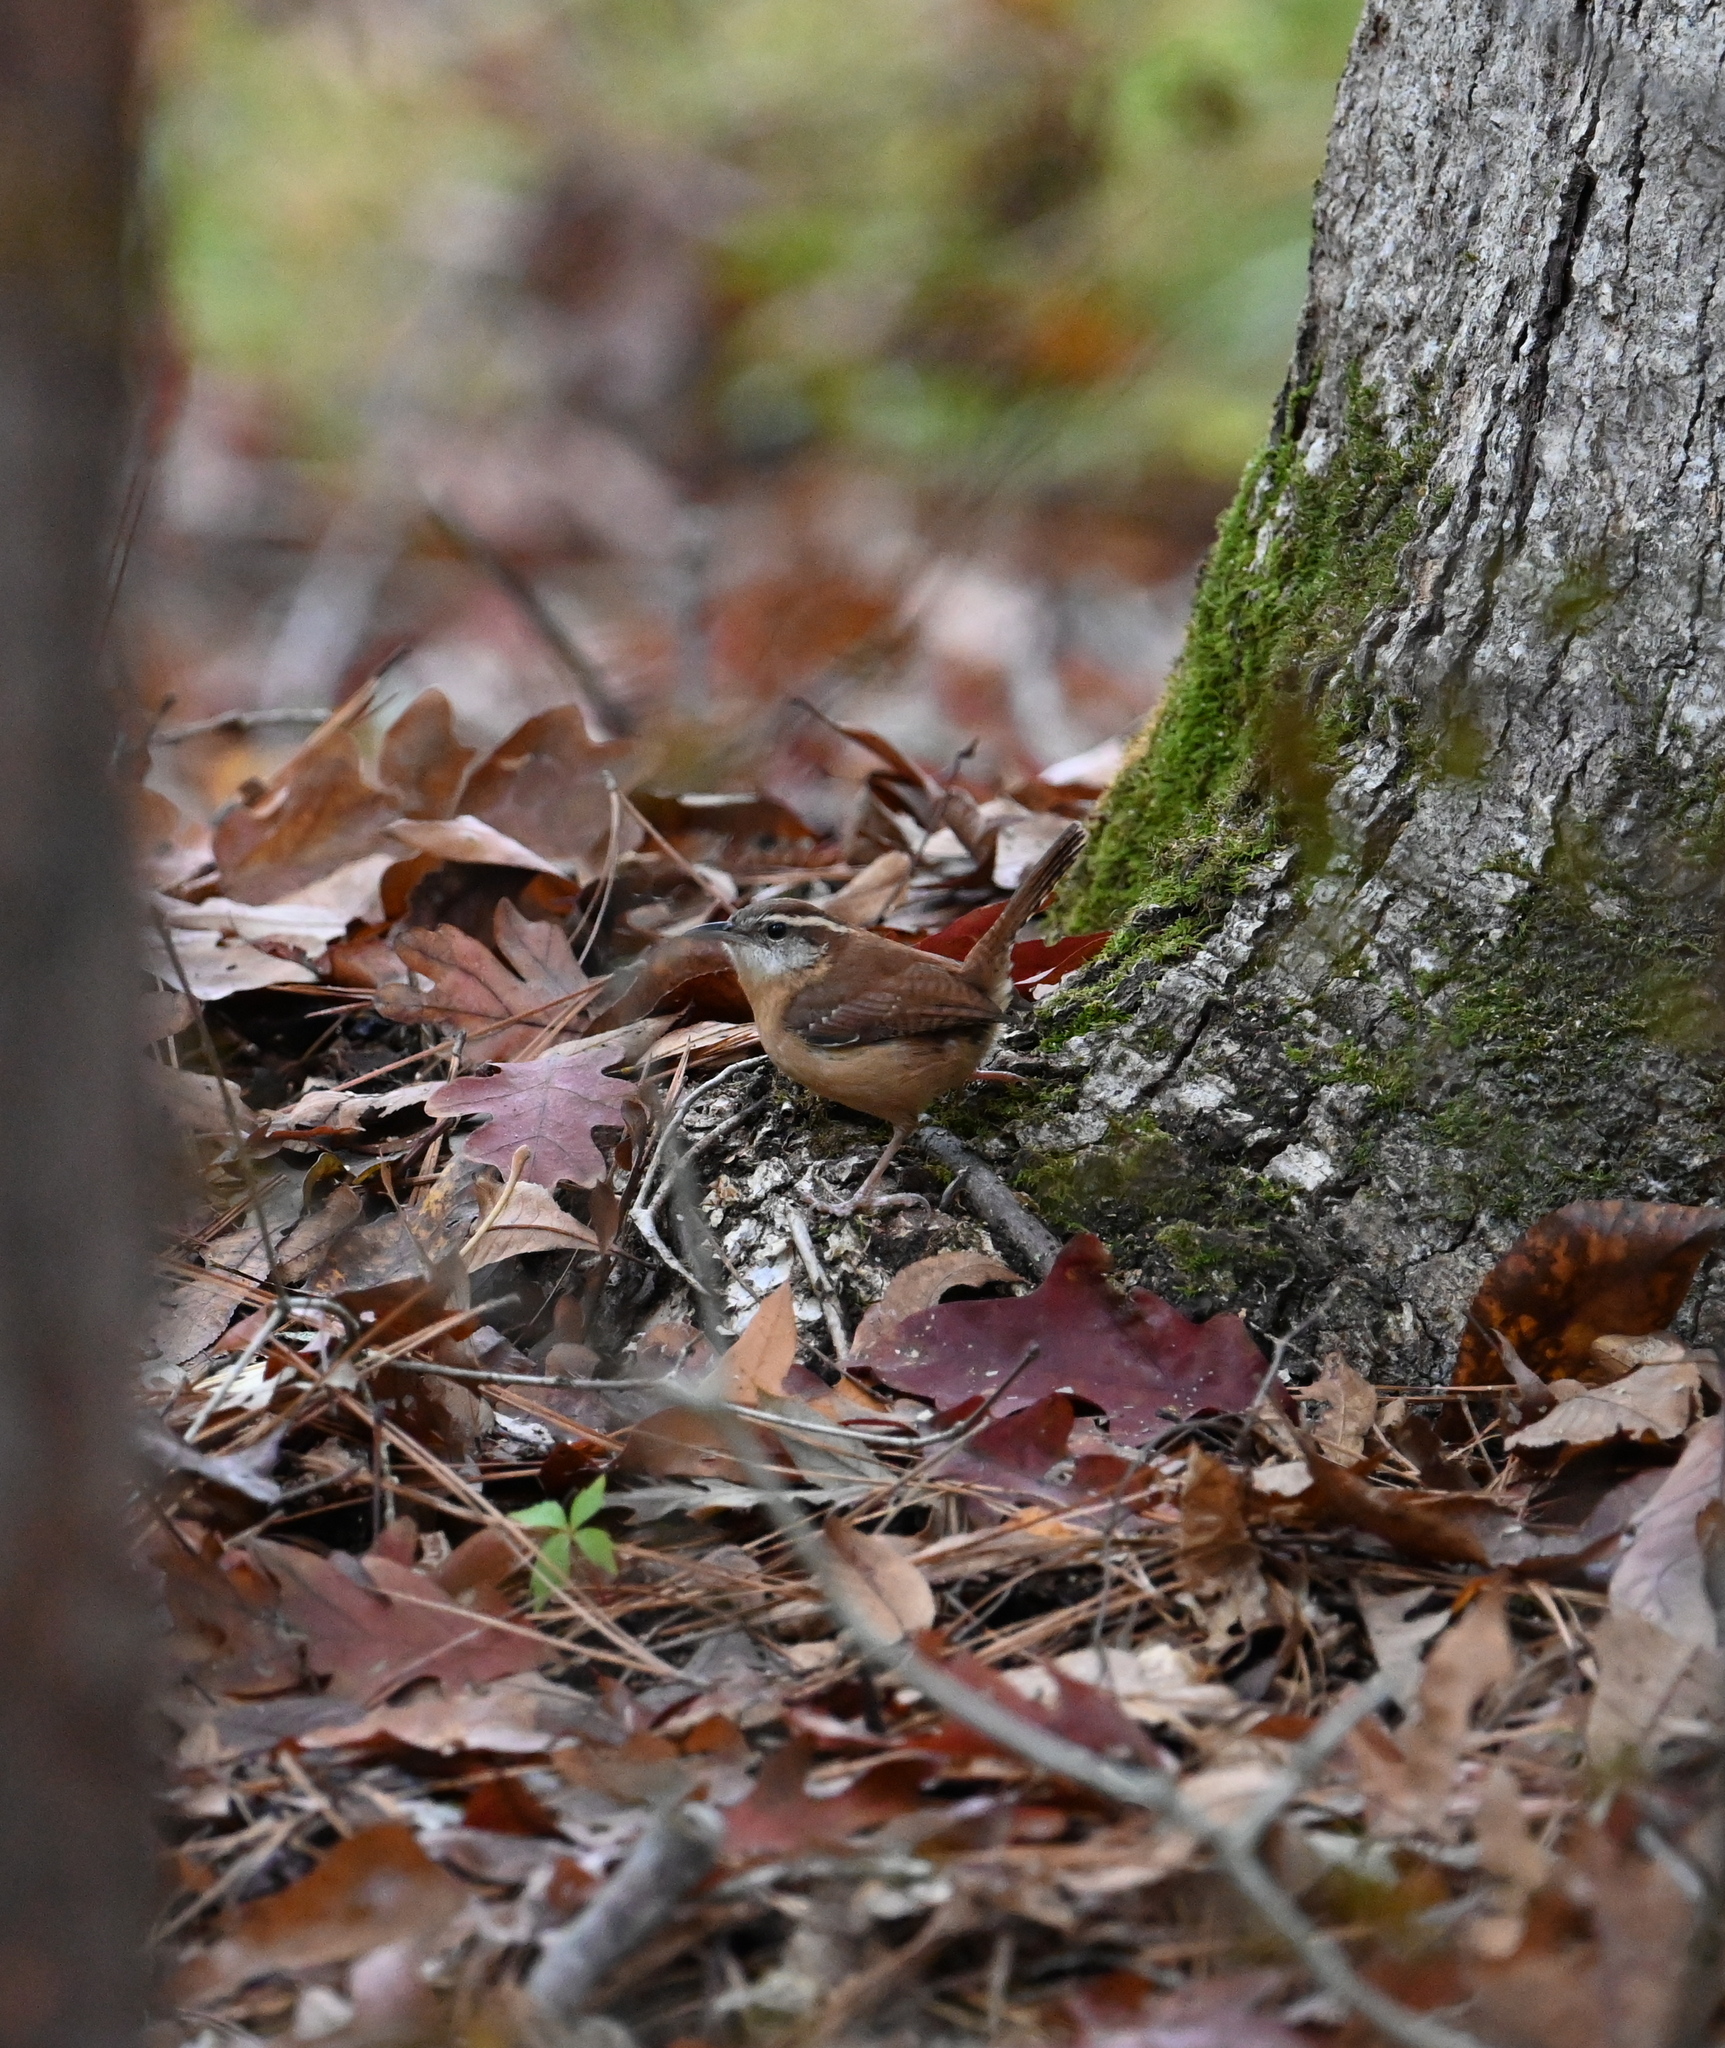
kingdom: Animalia
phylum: Chordata
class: Aves
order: Passeriformes
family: Troglodytidae
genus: Thryothorus
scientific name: Thryothorus ludovicianus
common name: Carolina wren
